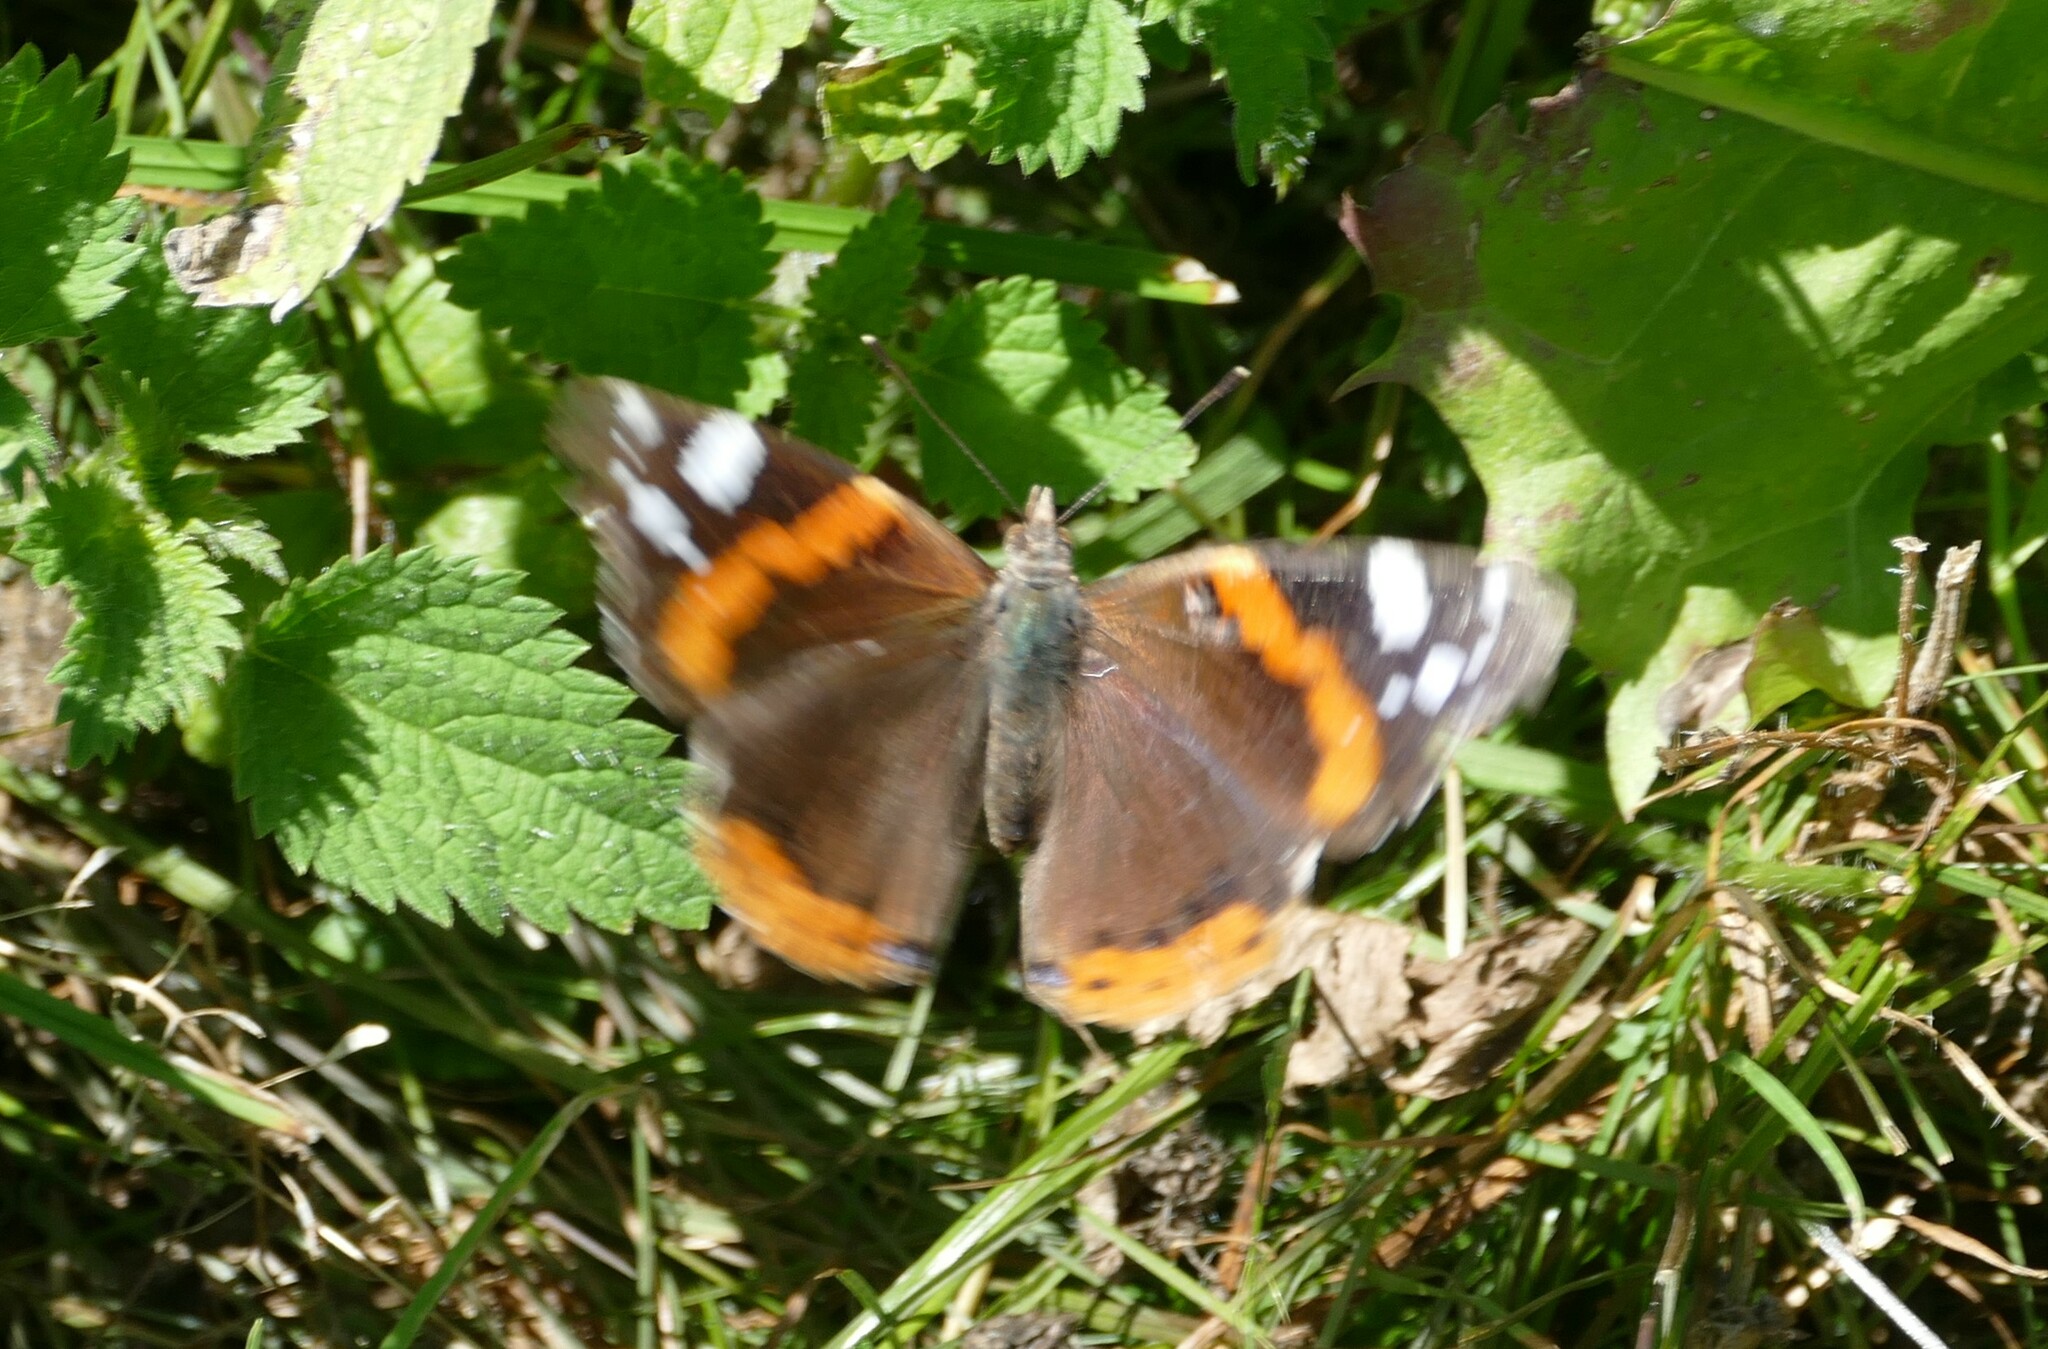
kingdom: Animalia
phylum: Arthropoda
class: Insecta
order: Lepidoptera
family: Nymphalidae
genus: Vanessa
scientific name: Vanessa atalanta
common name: Red admiral
